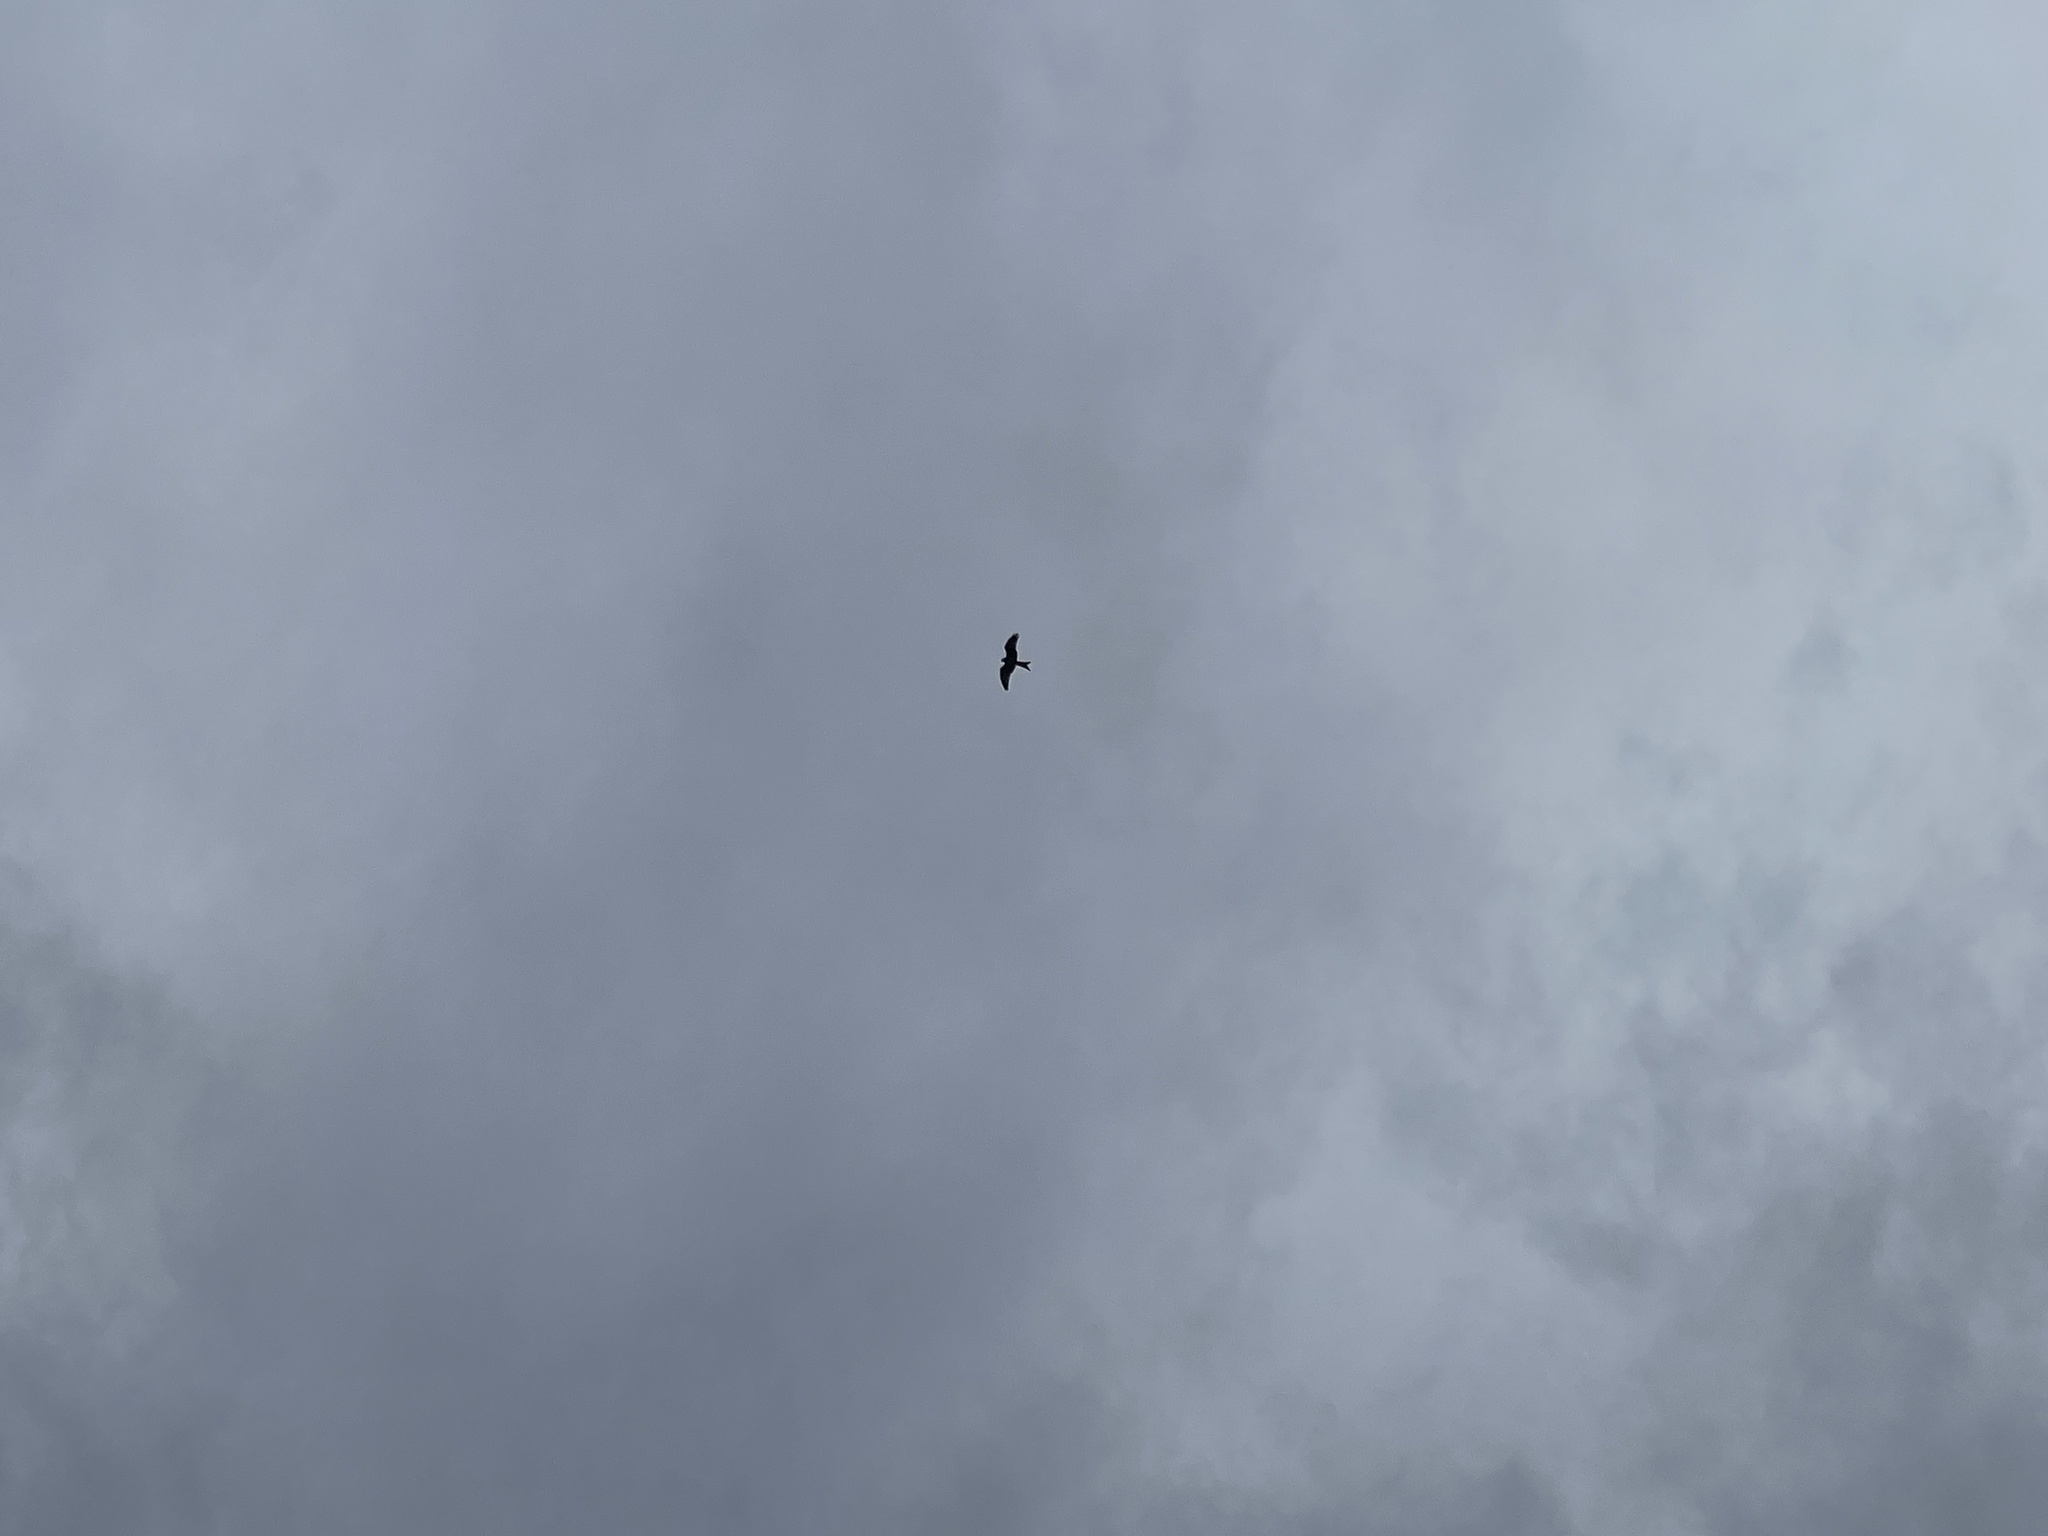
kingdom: Animalia
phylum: Chordata
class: Aves
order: Accipitriformes
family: Accipitridae
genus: Milvus
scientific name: Milvus milvus
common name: Red kite
